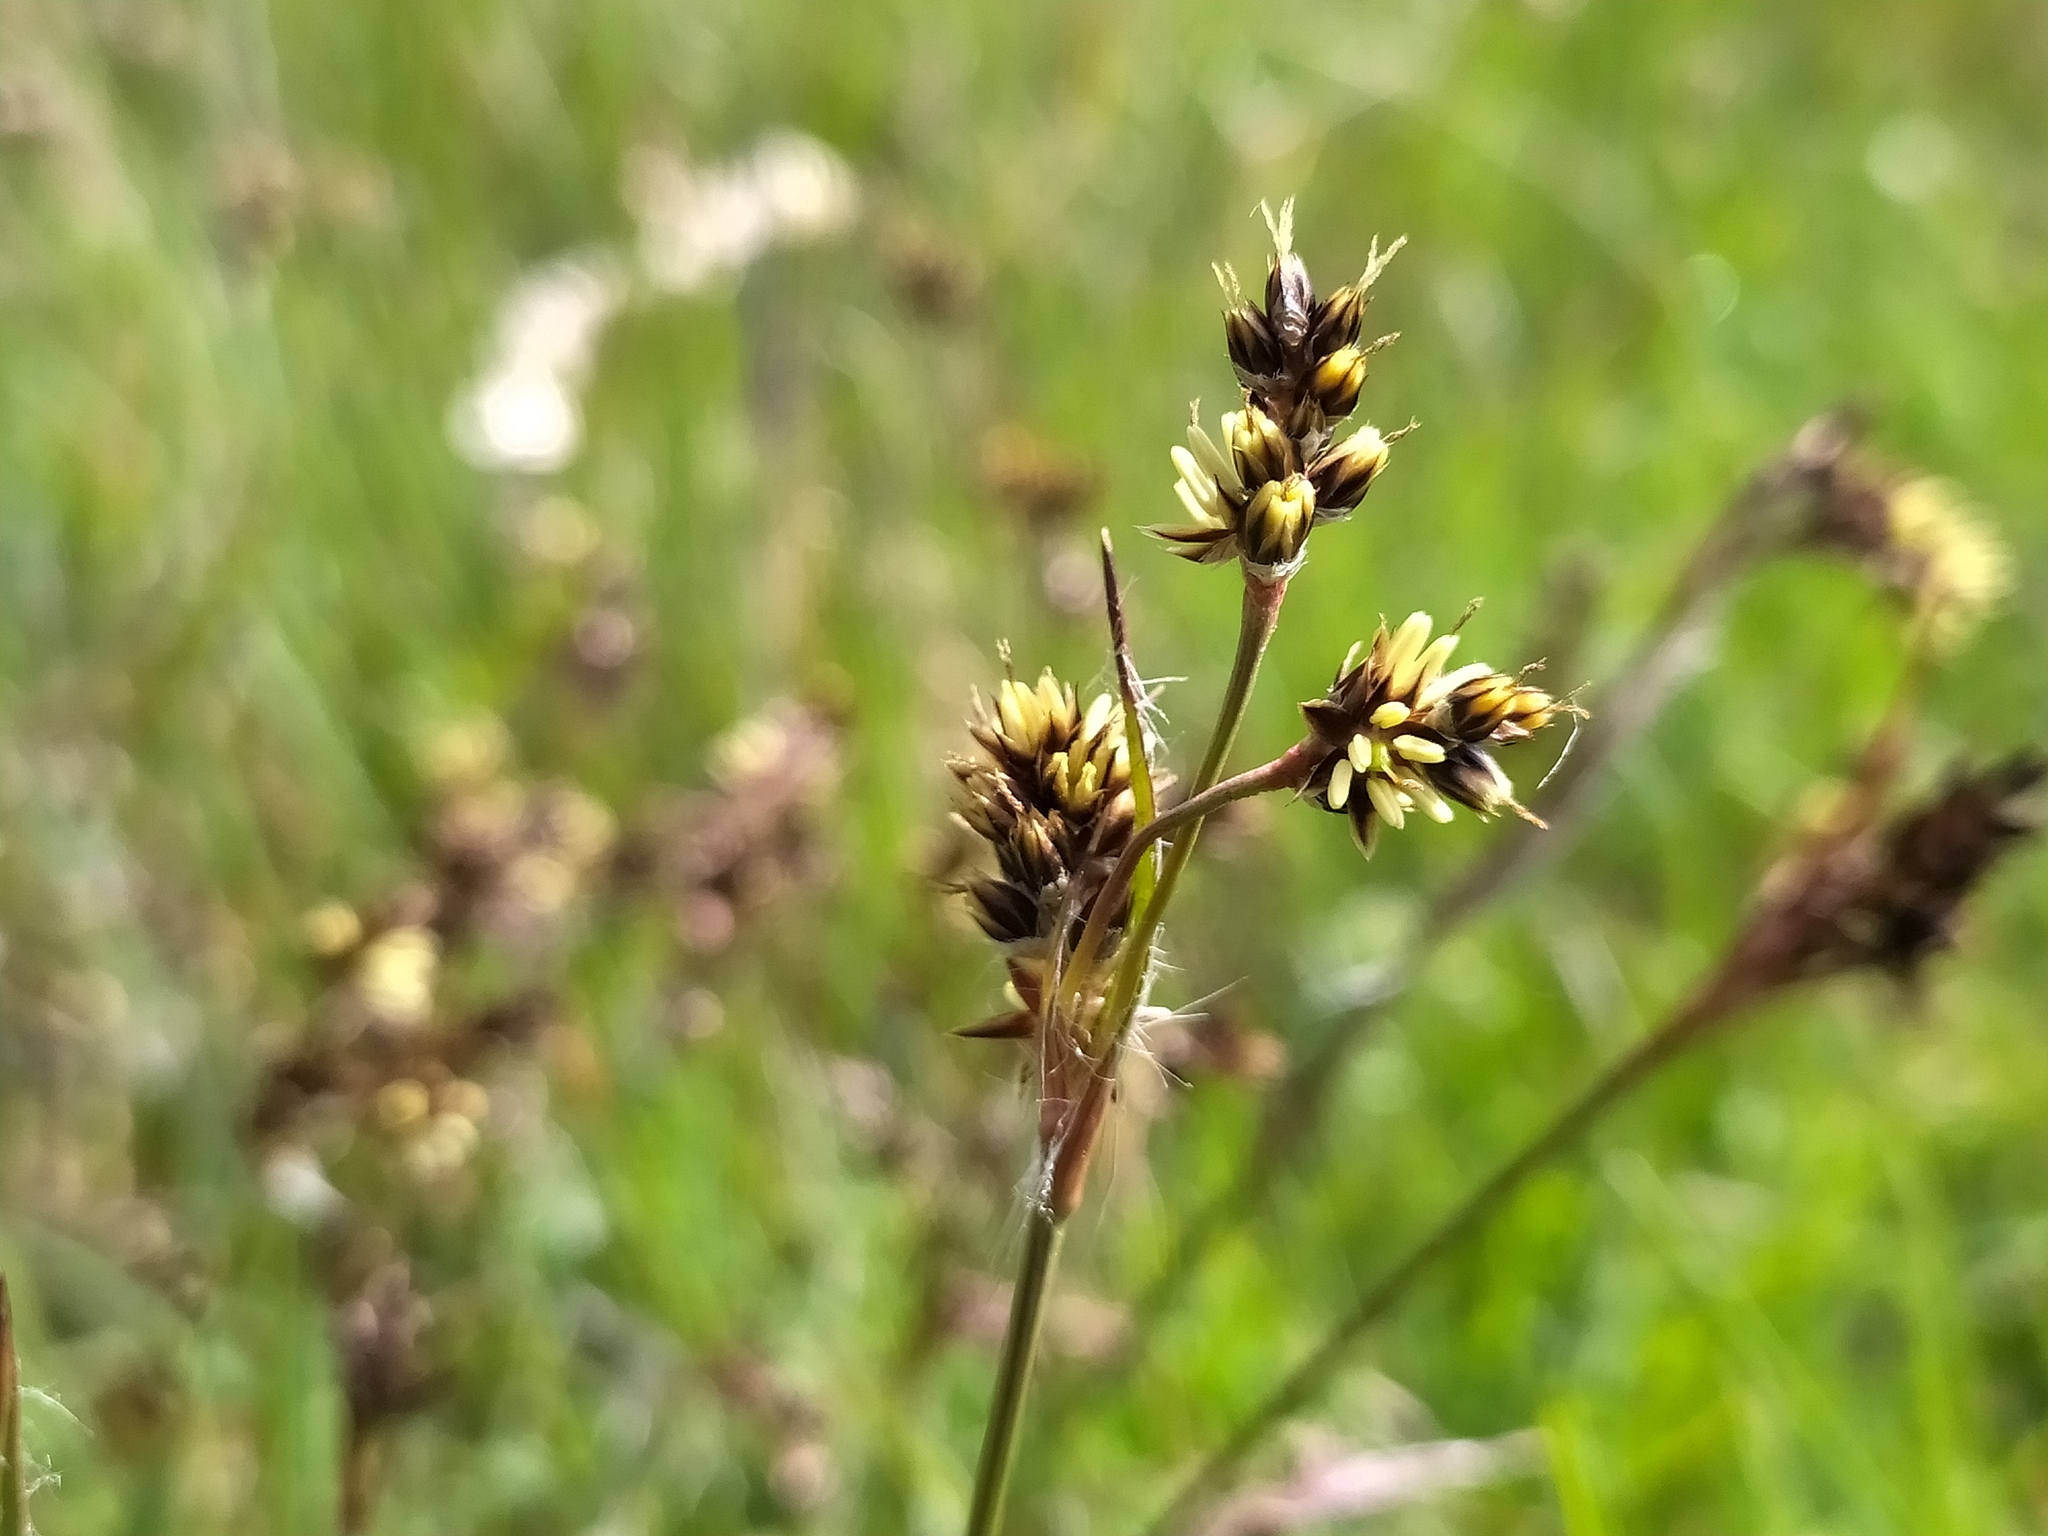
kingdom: Plantae
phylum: Tracheophyta
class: Liliopsida
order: Poales
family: Juncaceae
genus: Luzula
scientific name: Luzula campestris
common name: Field wood-rush
